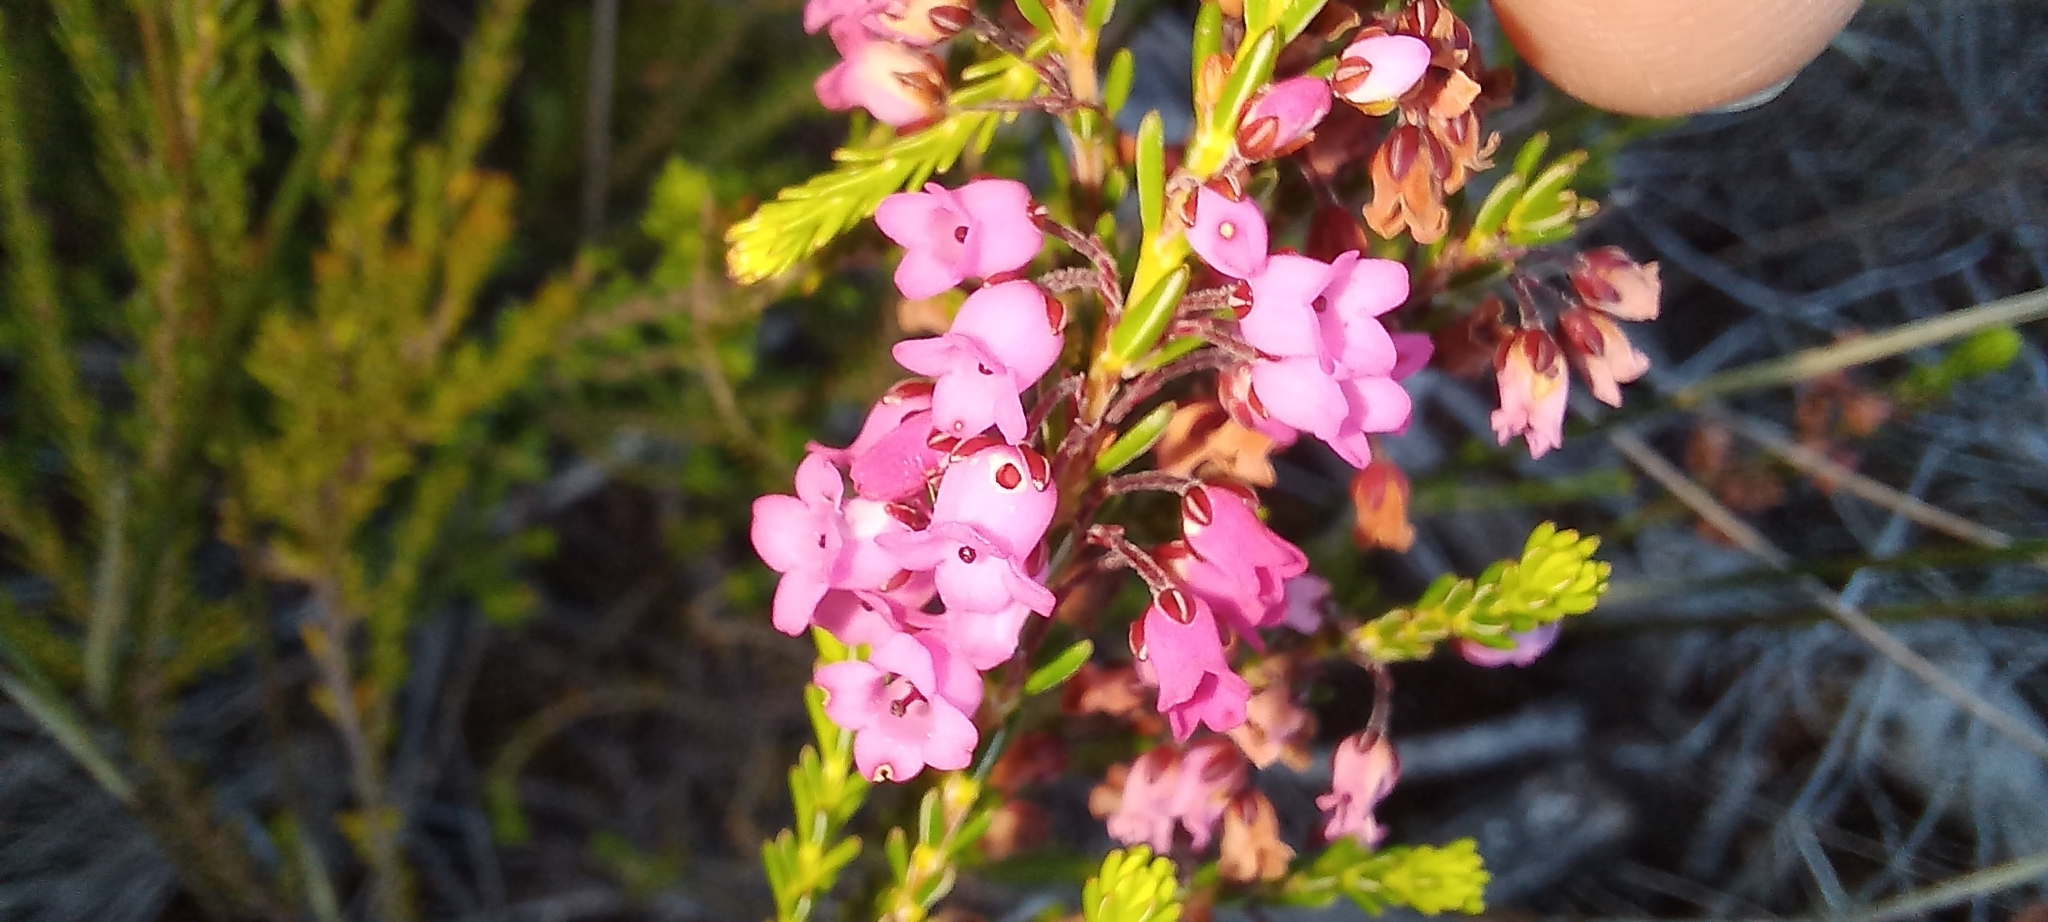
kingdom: Plantae
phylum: Tracheophyta
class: Magnoliopsida
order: Ericales
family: Ericaceae
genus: Erica
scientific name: Erica pulchella
